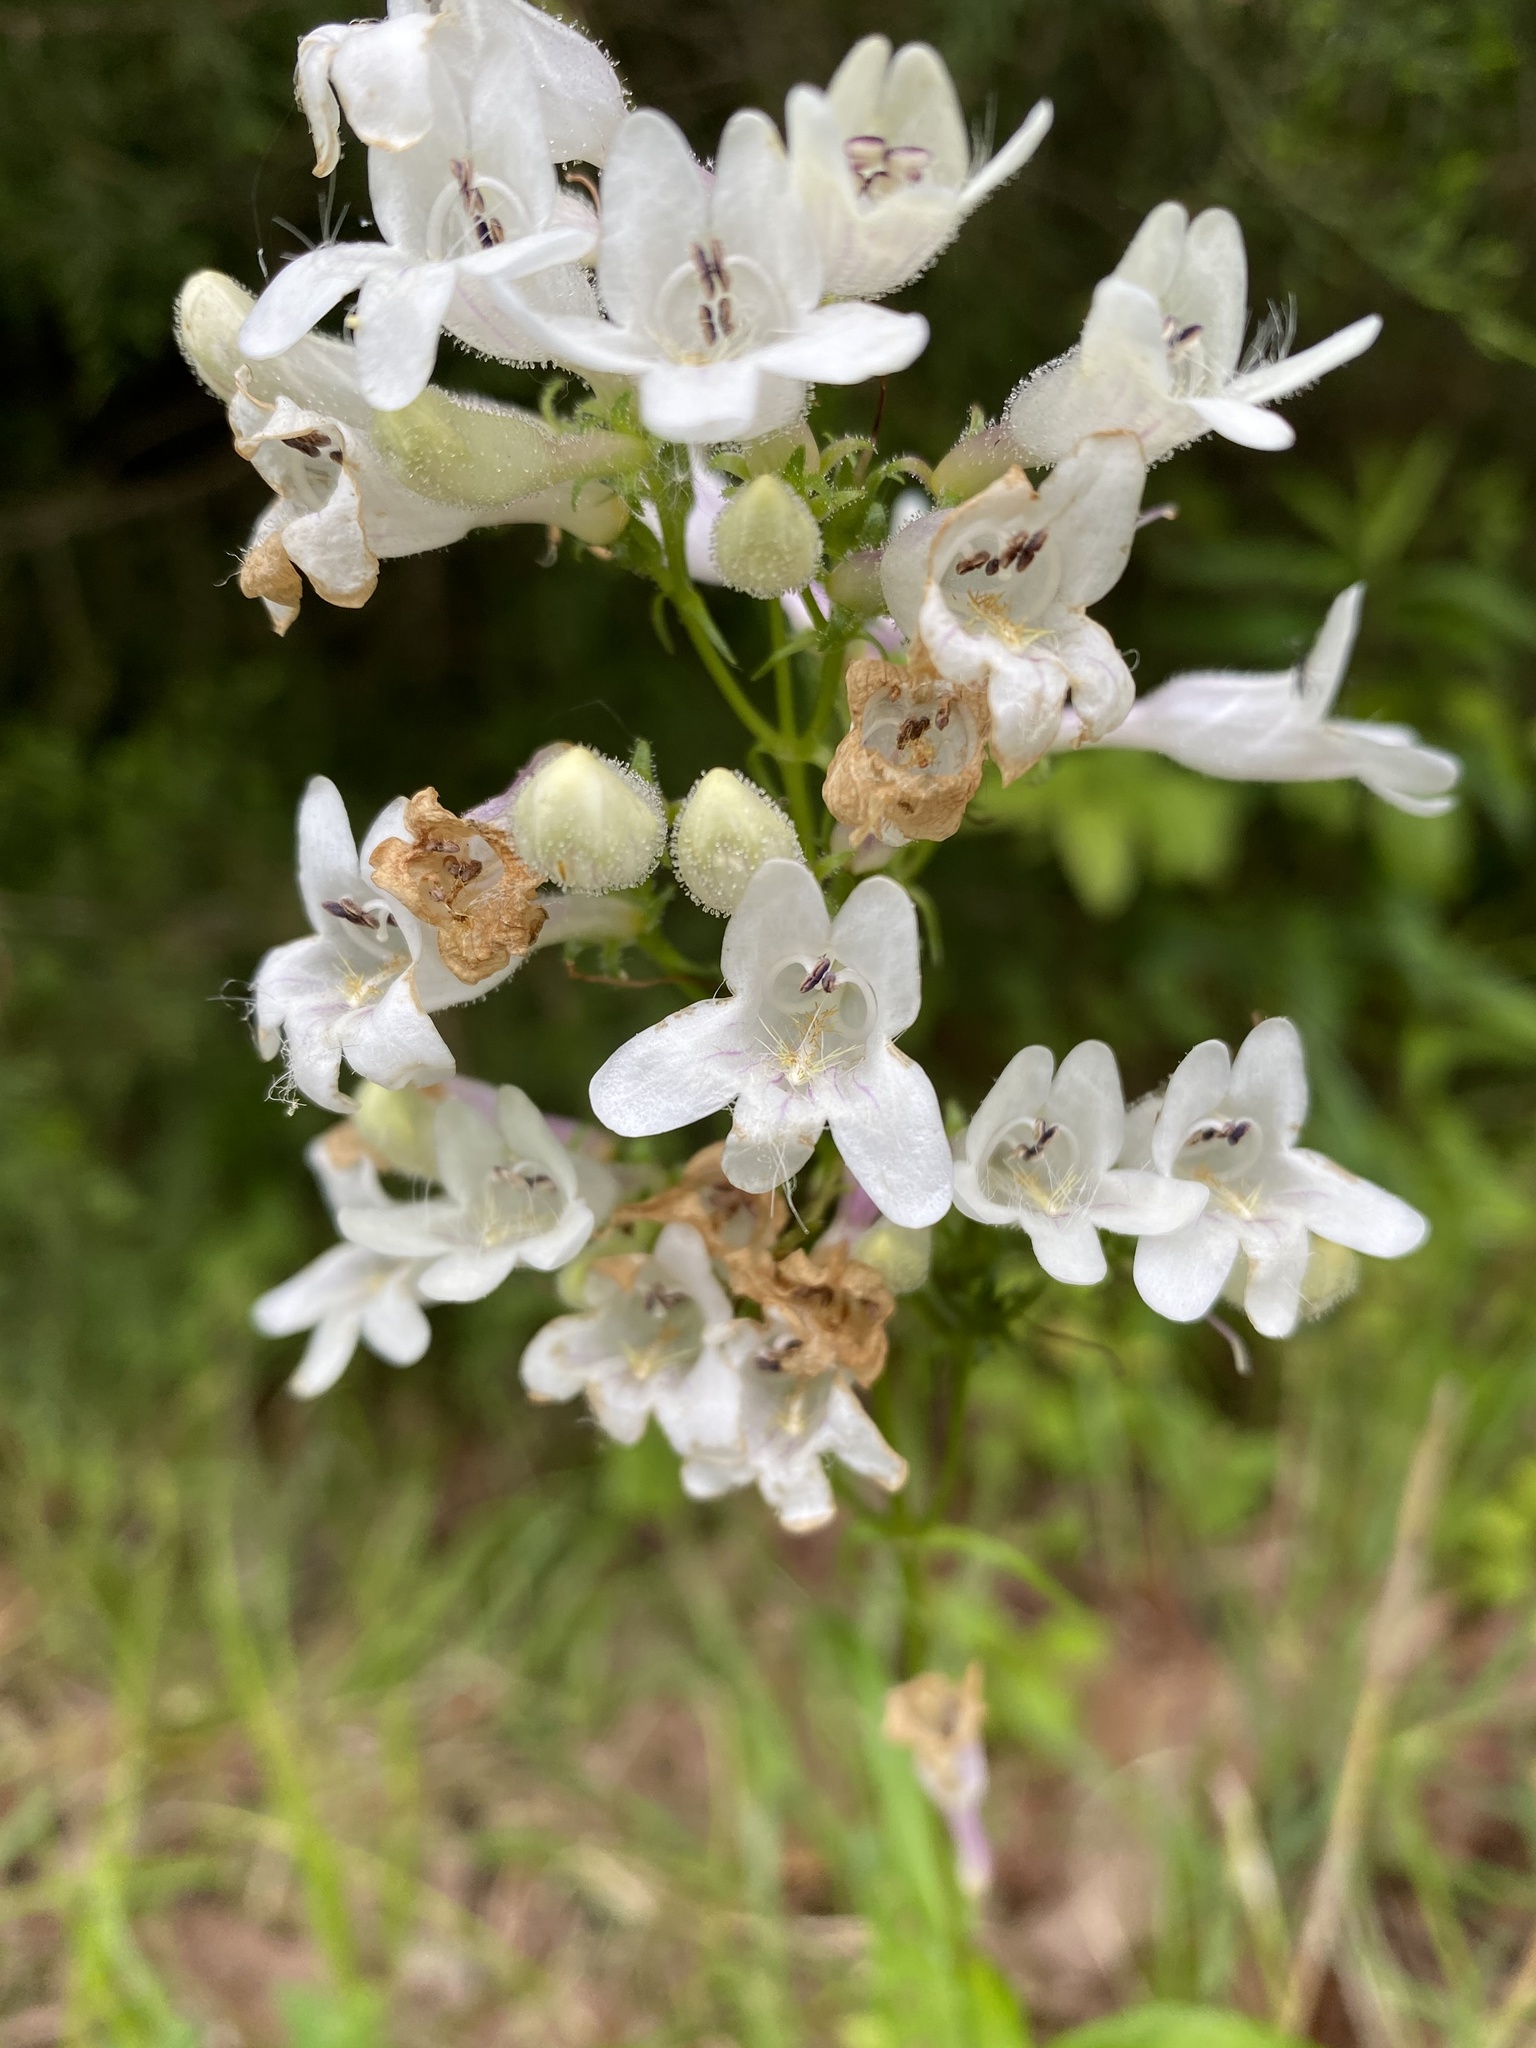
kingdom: Plantae
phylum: Tracheophyta
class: Magnoliopsida
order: Lamiales
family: Plantaginaceae
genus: Penstemon
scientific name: Penstemon digitalis
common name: Foxglove beardtongue
